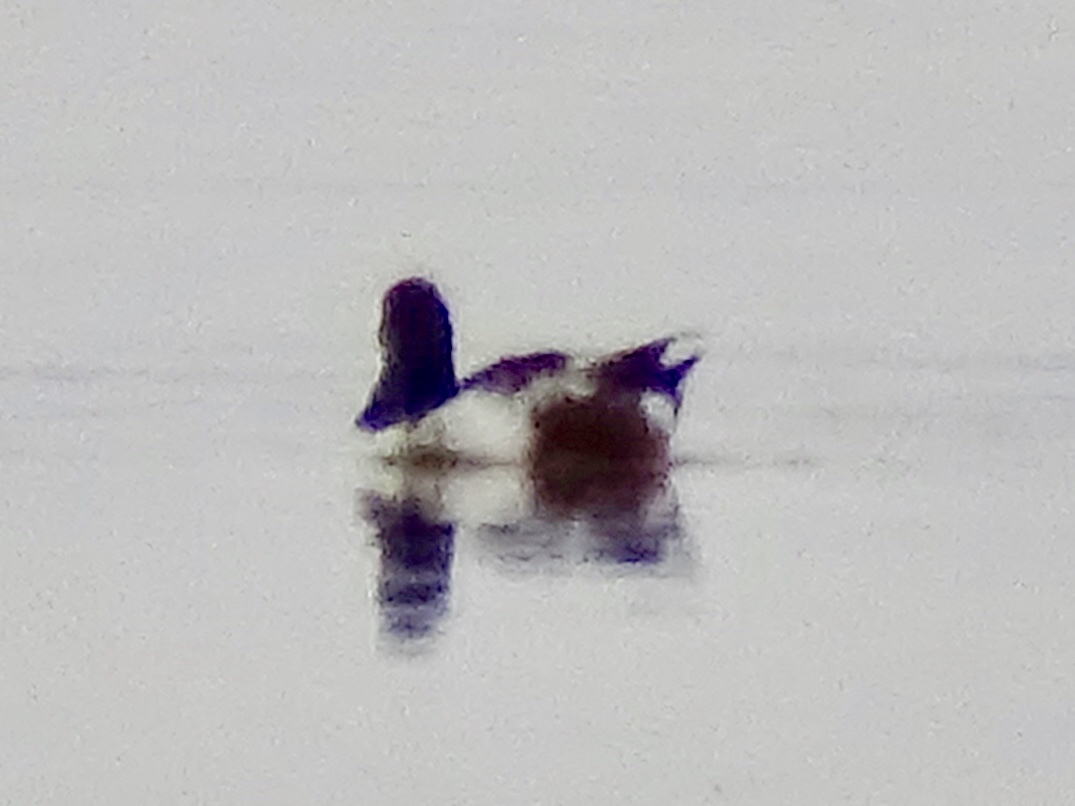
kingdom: Animalia
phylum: Chordata
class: Aves
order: Anseriformes
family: Anatidae
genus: Spatula
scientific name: Spatula clypeata
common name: Northern shoveler
